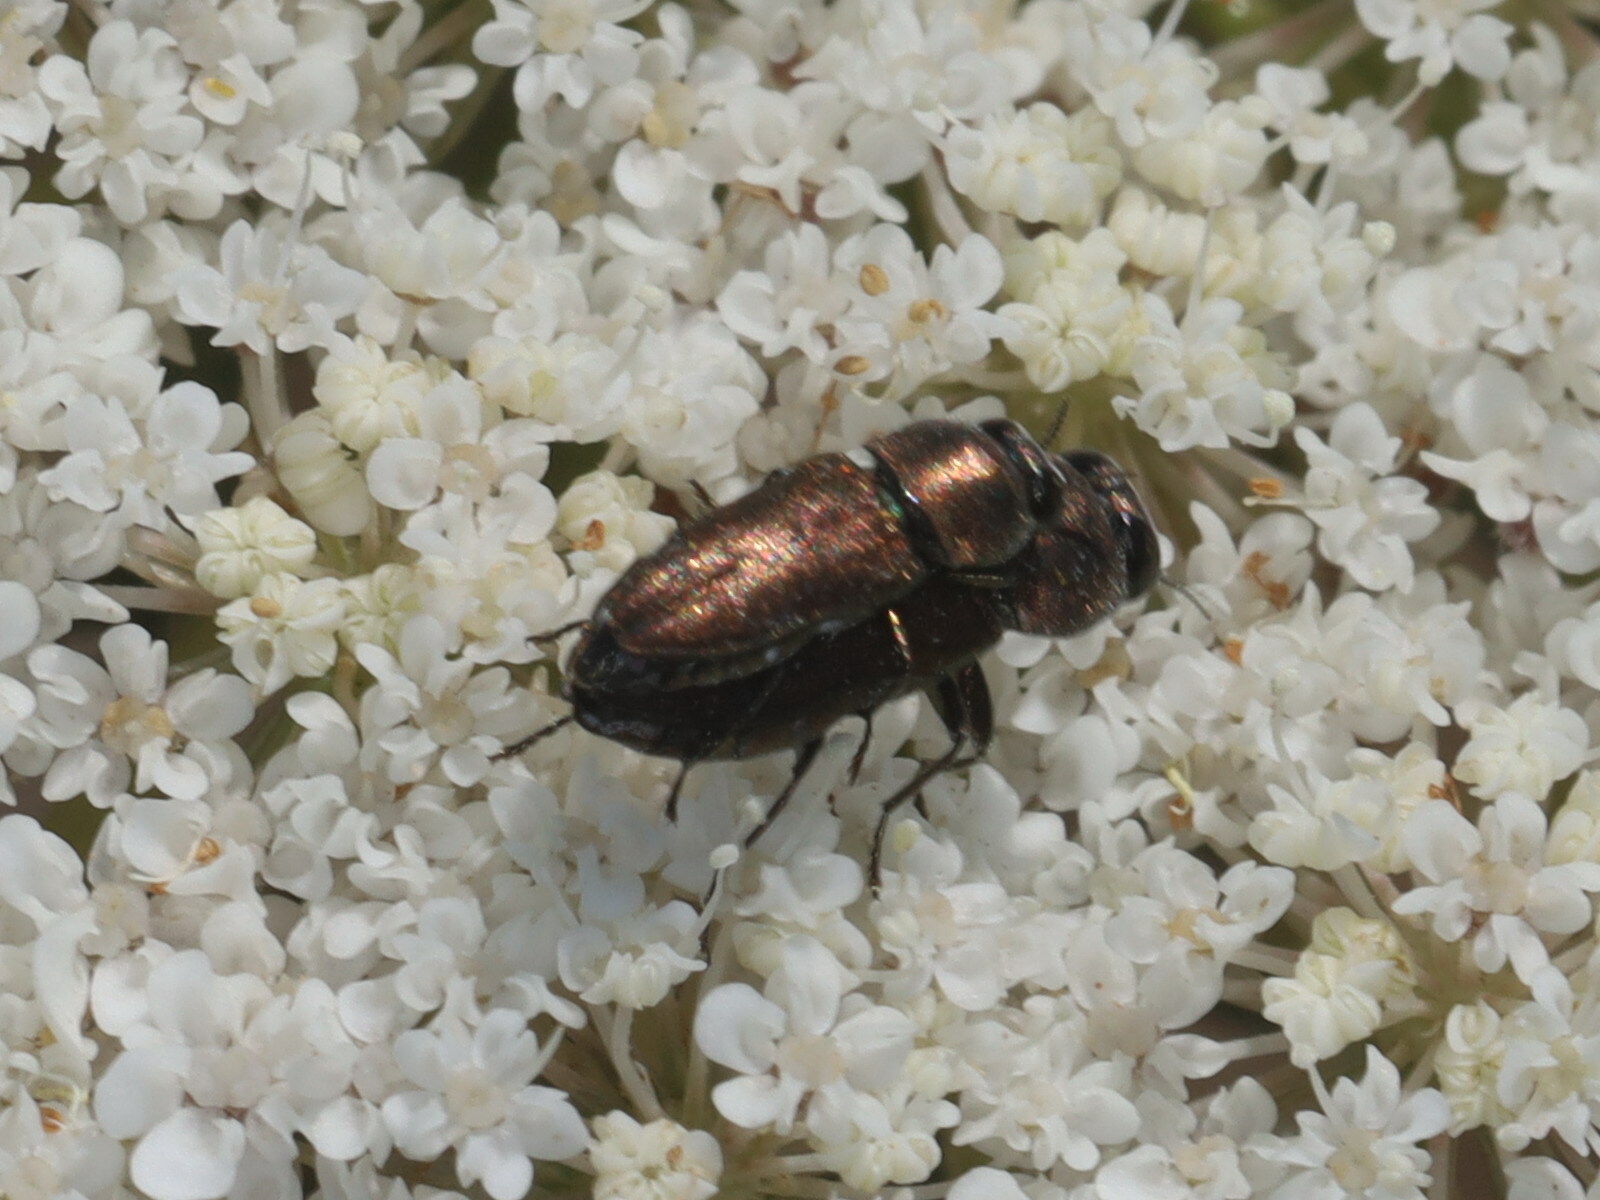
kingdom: Animalia
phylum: Arthropoda
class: Insecta
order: Coleoptera
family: Buprestidae
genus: Anthaxia
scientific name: Anthaxia umbellatarum
